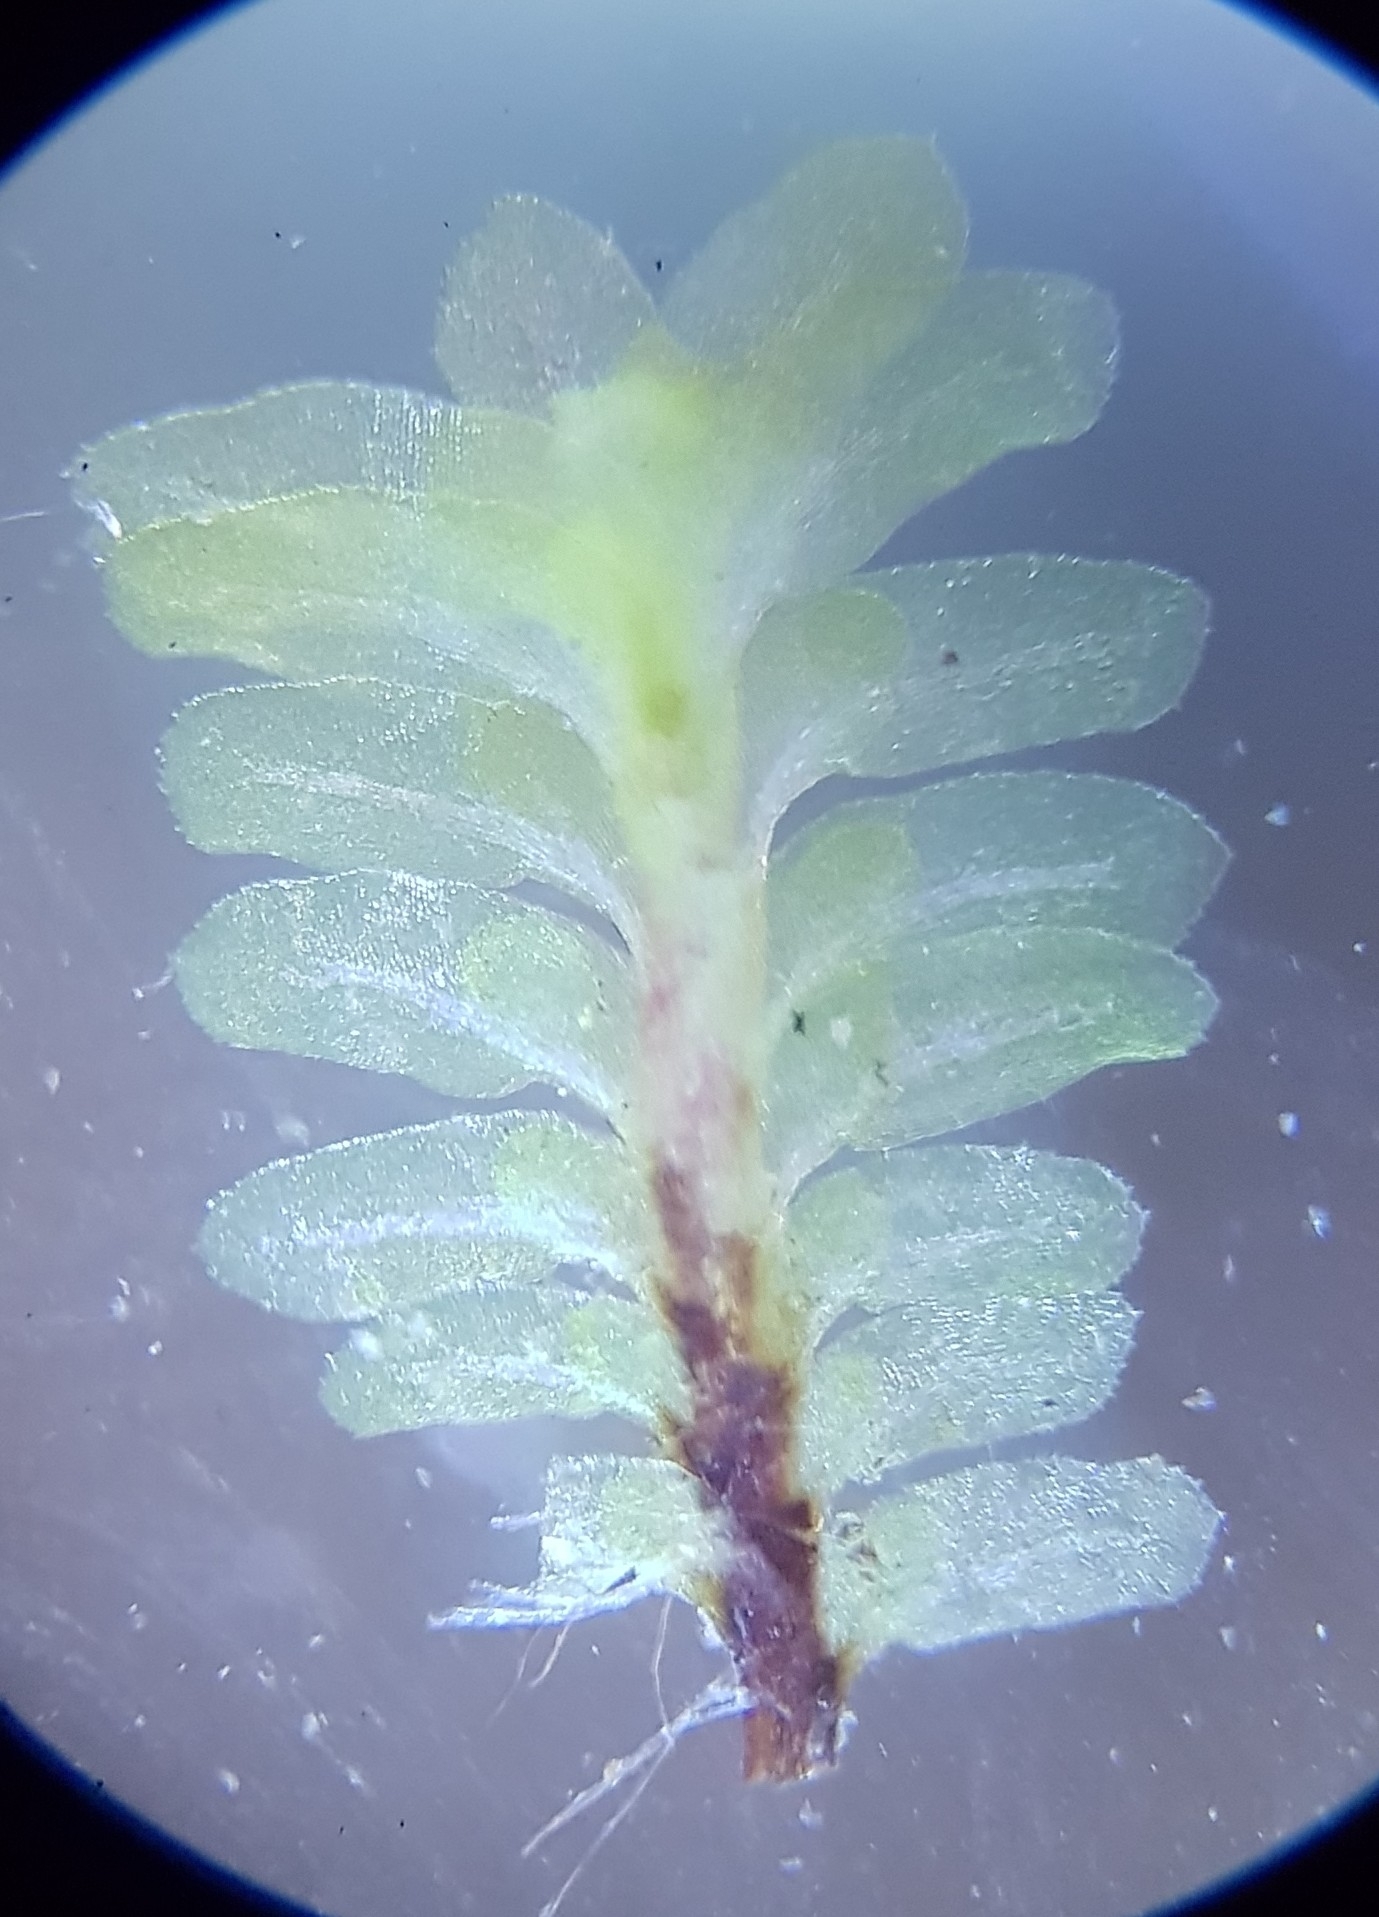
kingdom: Plantae
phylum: Marchantiophyta
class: Jungermanniopsida
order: Jungermanniales
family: Scapaniaceae
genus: Diplophyllum
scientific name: Diplophyllum albicans
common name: White earwort
